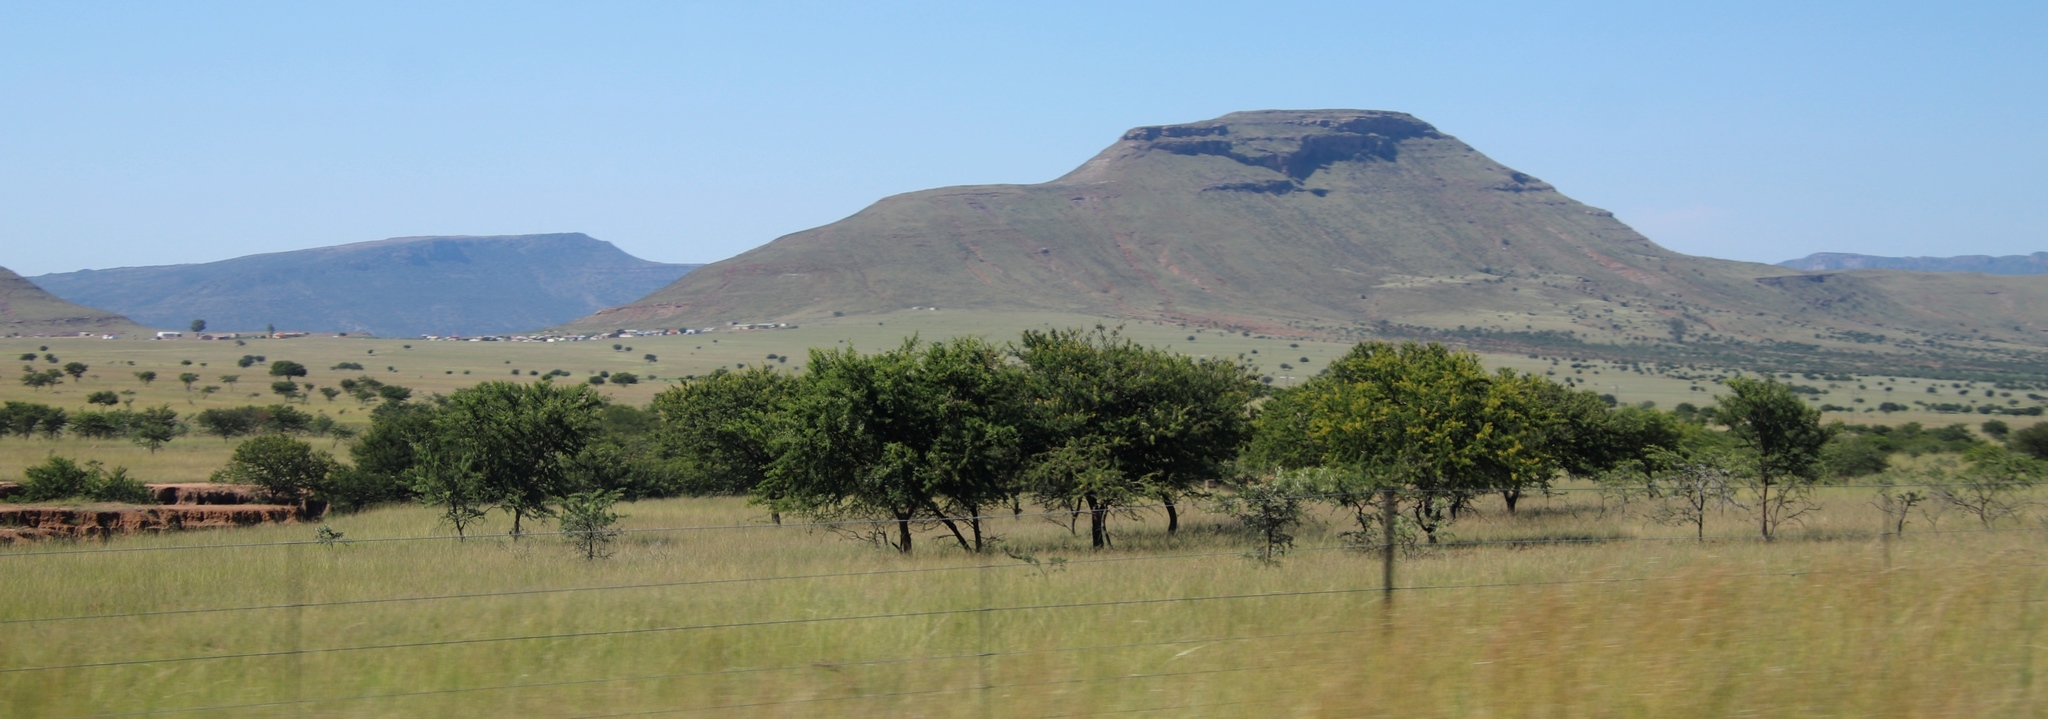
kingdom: Plantae
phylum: Tracheophyta
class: Magnoliopsida
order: Fabales
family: Fabaceae
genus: Vachellia
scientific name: Vachellia karroo
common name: Sweet thorn
